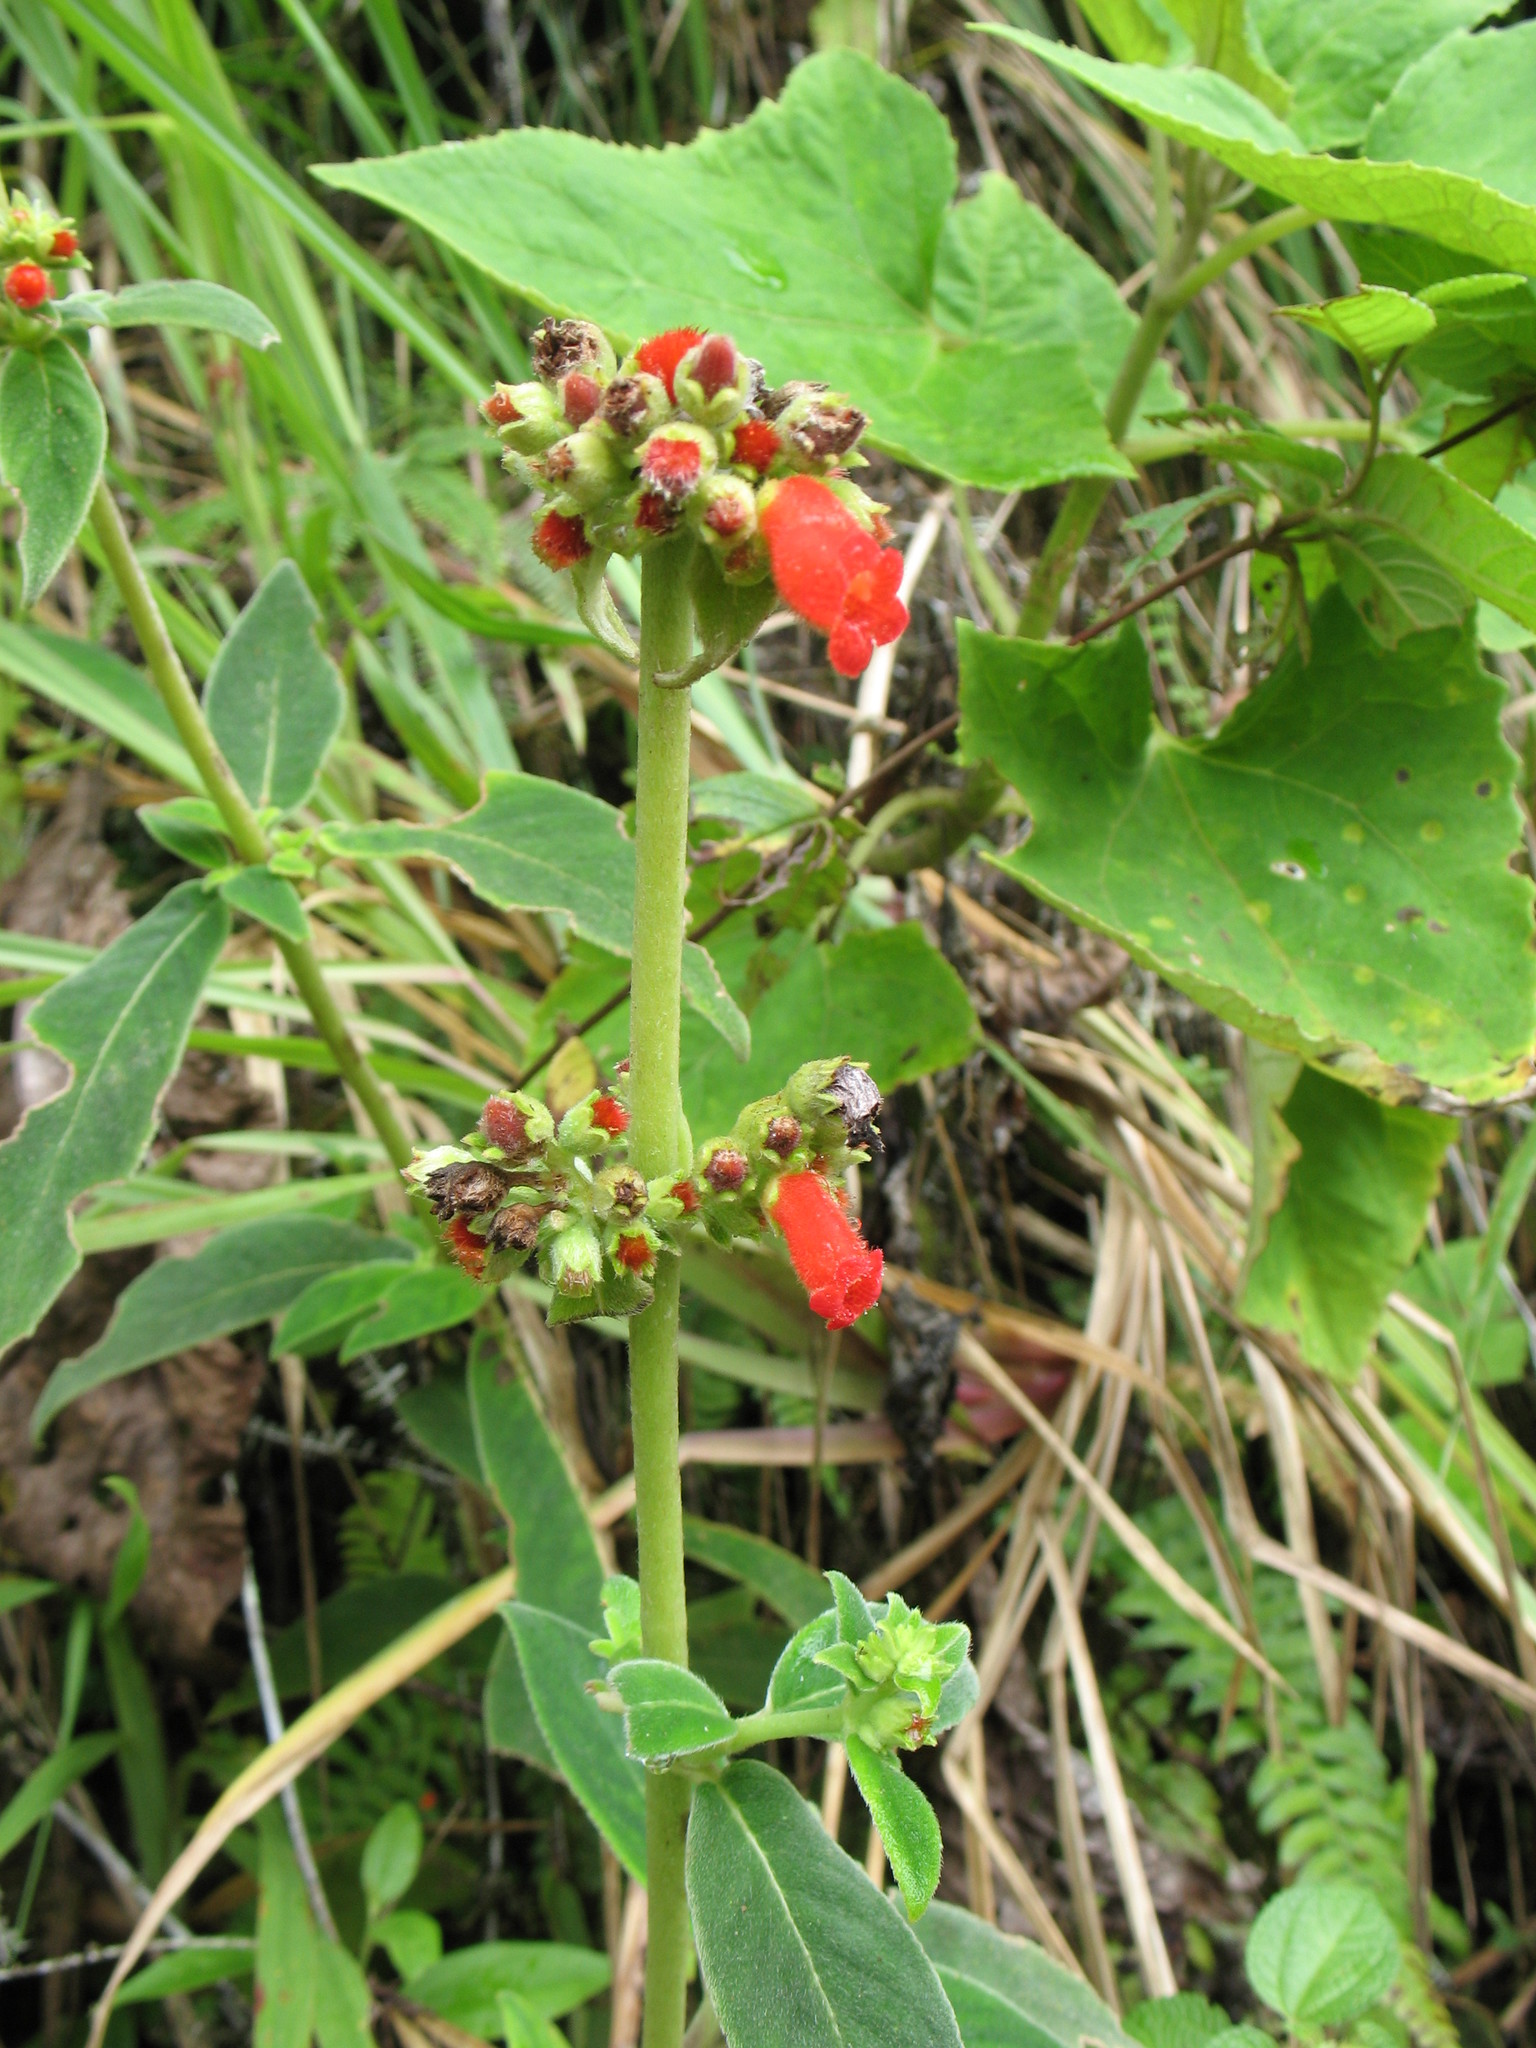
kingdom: Plantae
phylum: Tracheophyta
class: Magnoliopsida
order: Lamiales
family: Gesneriaceae
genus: Kohleria
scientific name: Kohleria spicata
